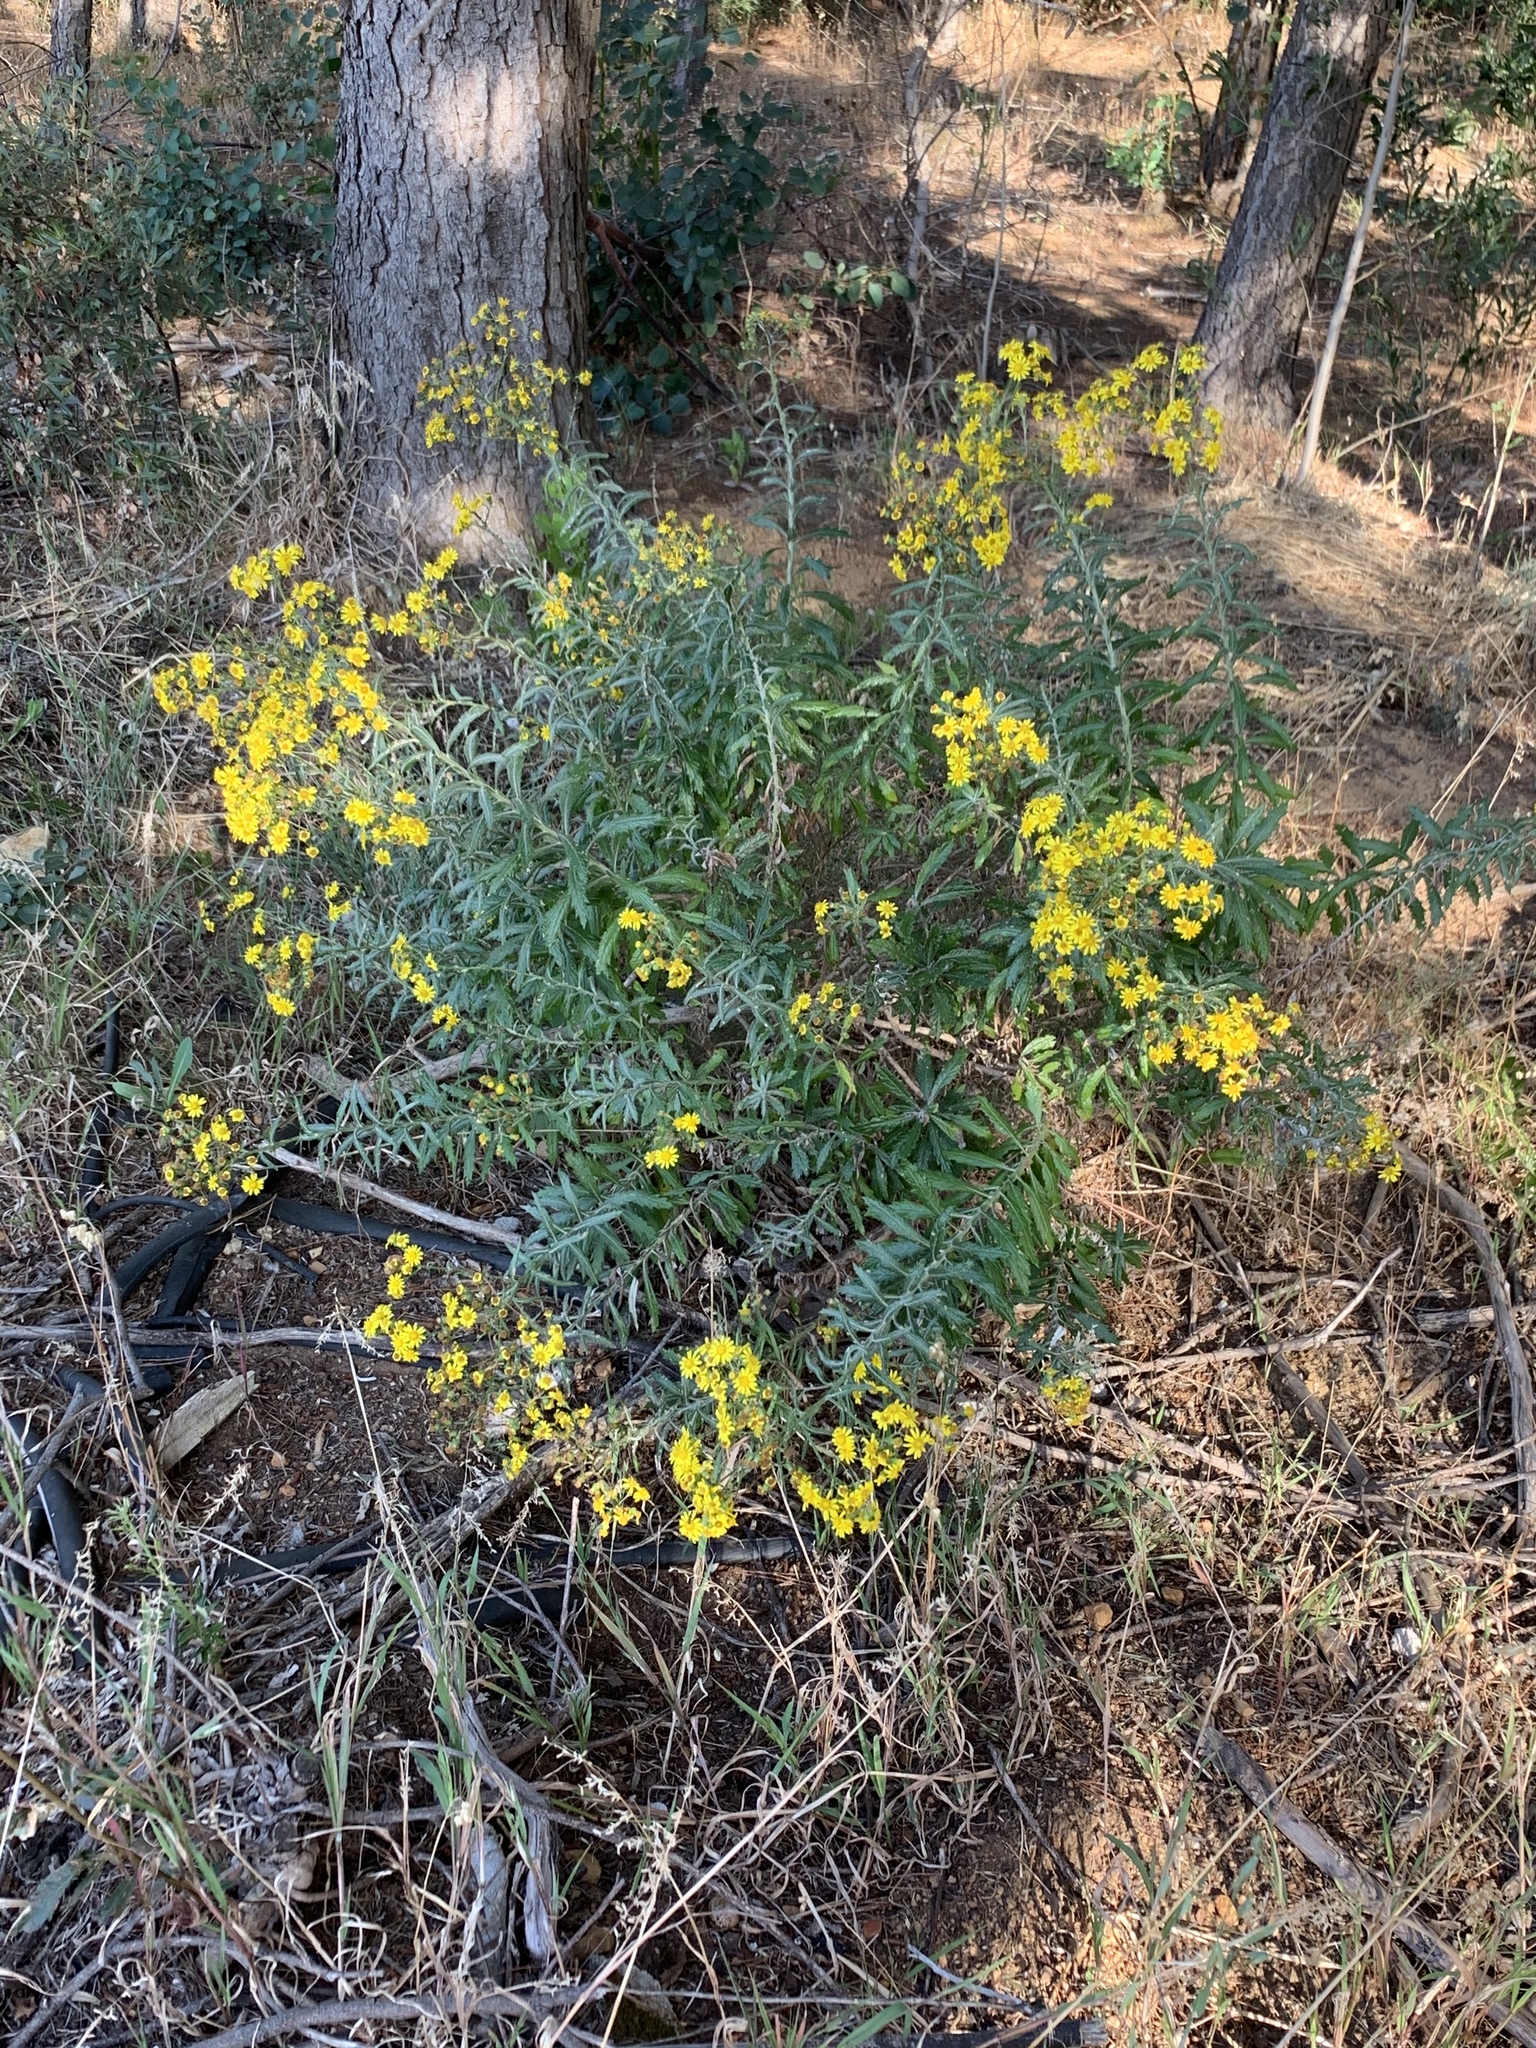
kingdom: Plantae
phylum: Tracheophyta
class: Magnoliopsida
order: Asterales
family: Asteraceae
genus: Senecio
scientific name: Senecio pterophorus
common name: Shoddy ragwort
